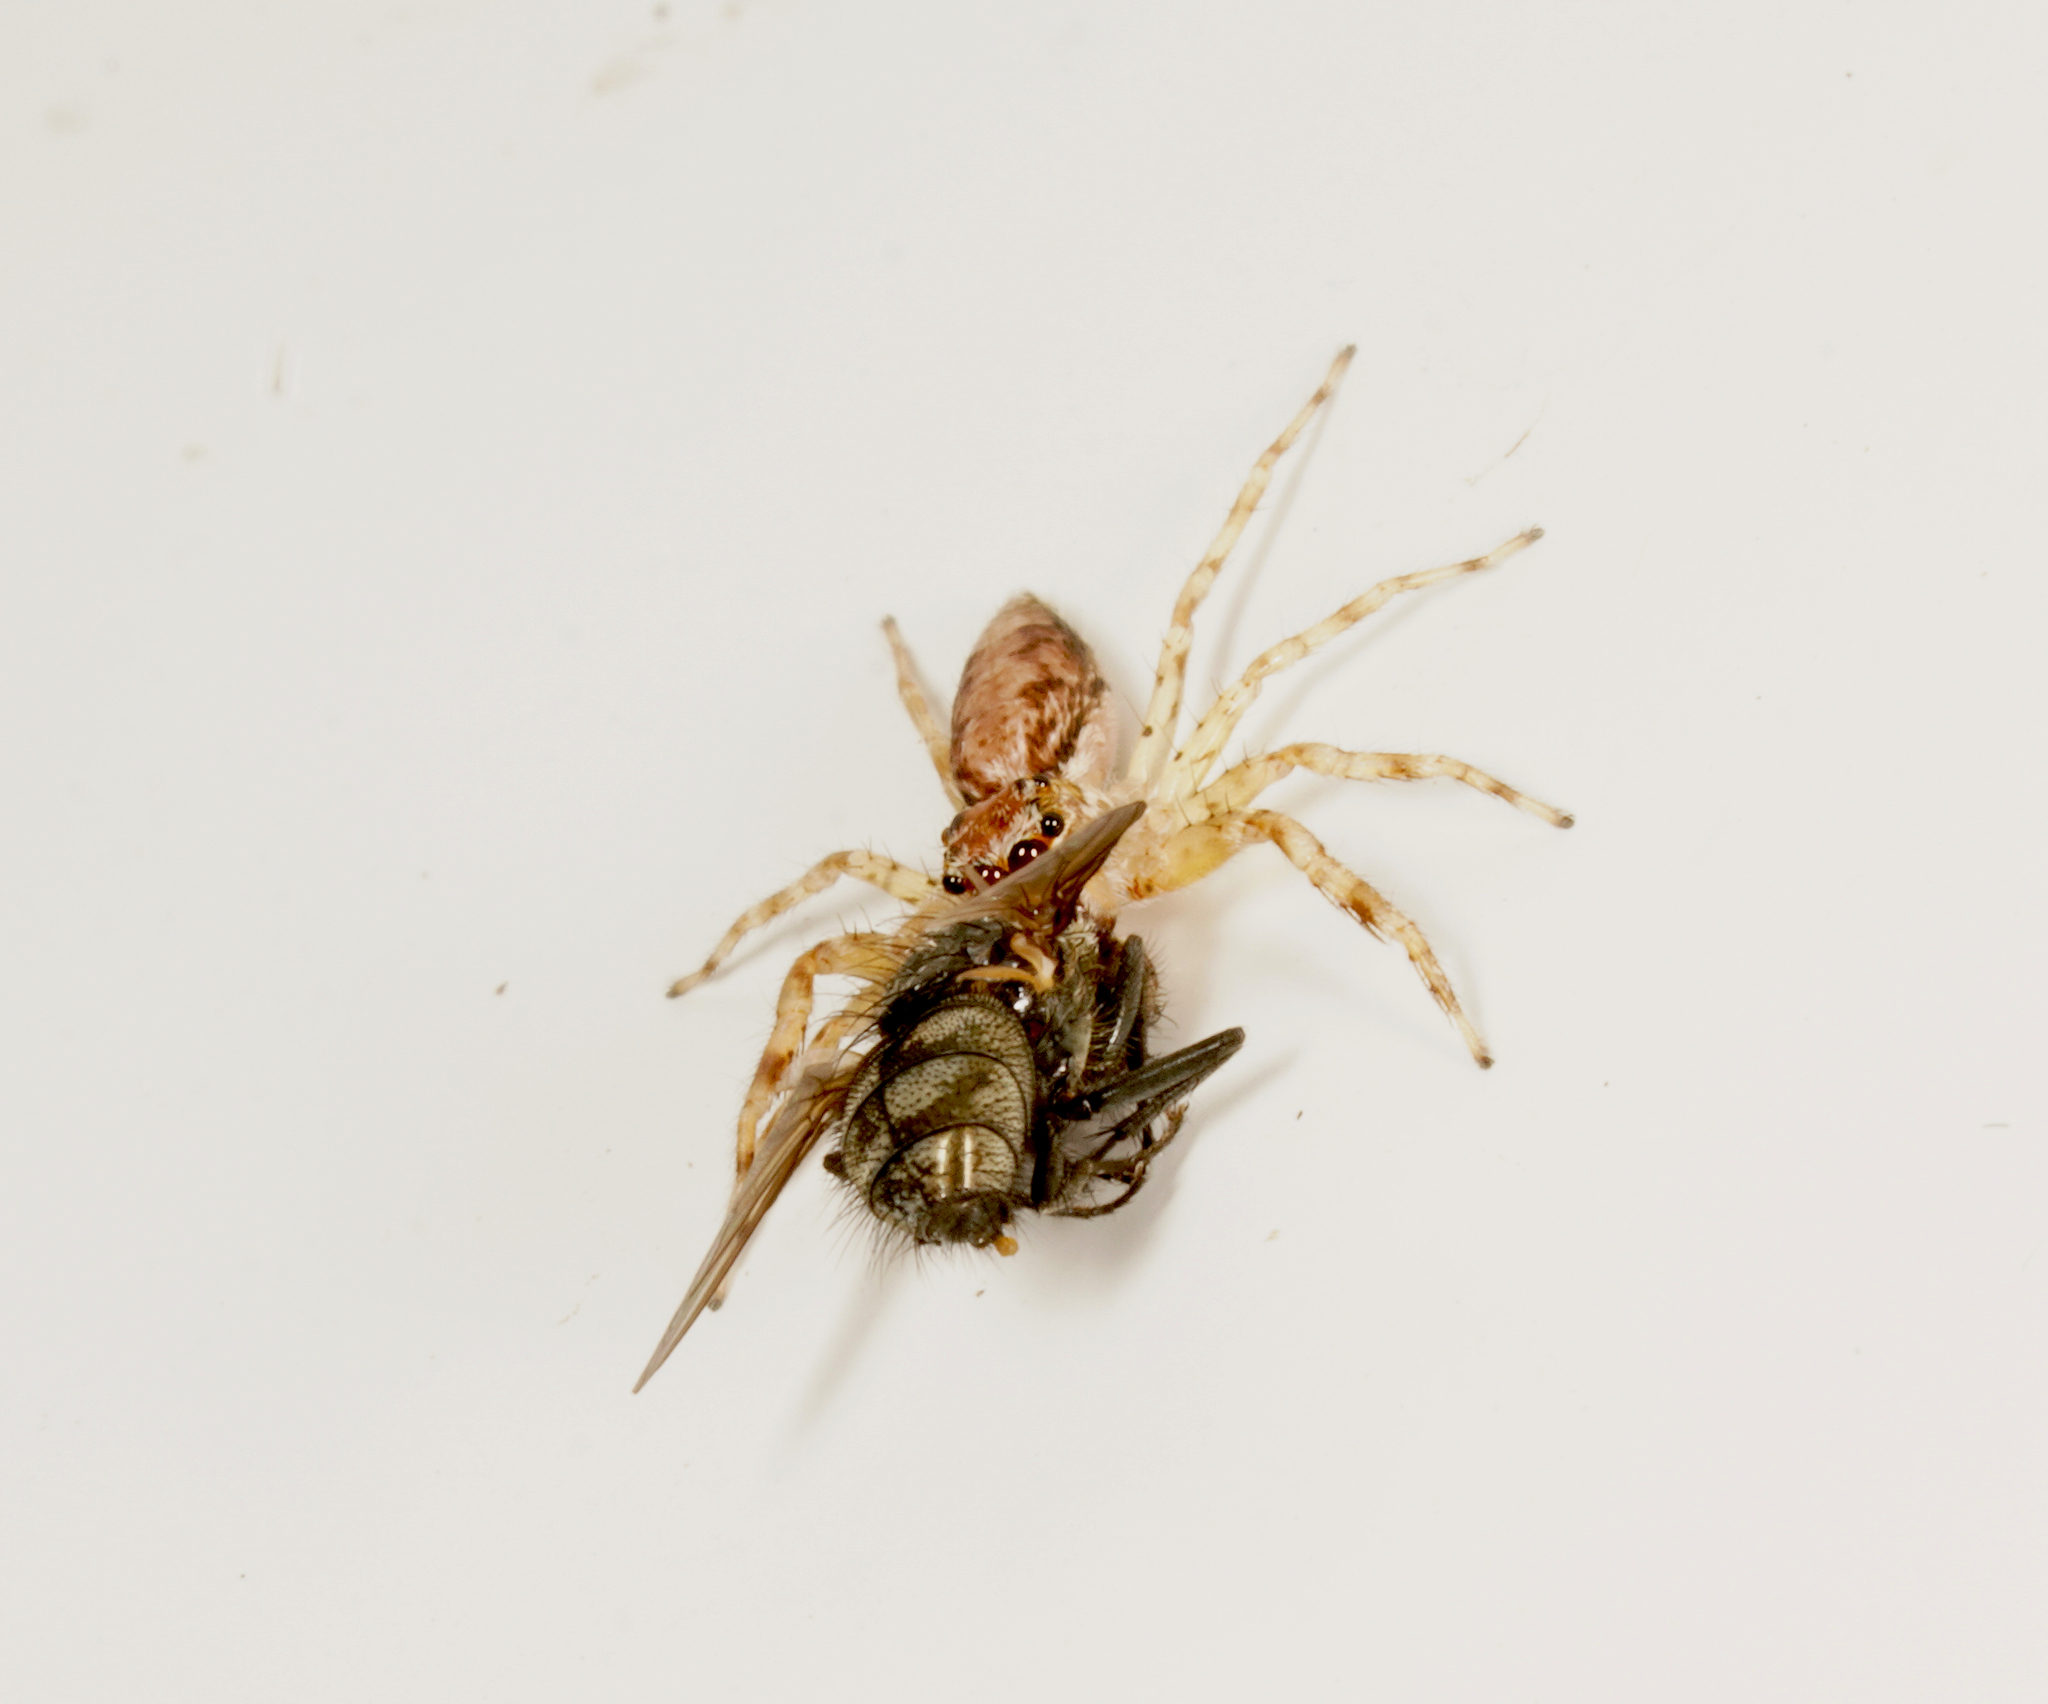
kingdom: Animalia
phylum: Arthropoda
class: Arachnida
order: Araneae
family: Salticidae
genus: Helpis
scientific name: Helpis minitabunda
